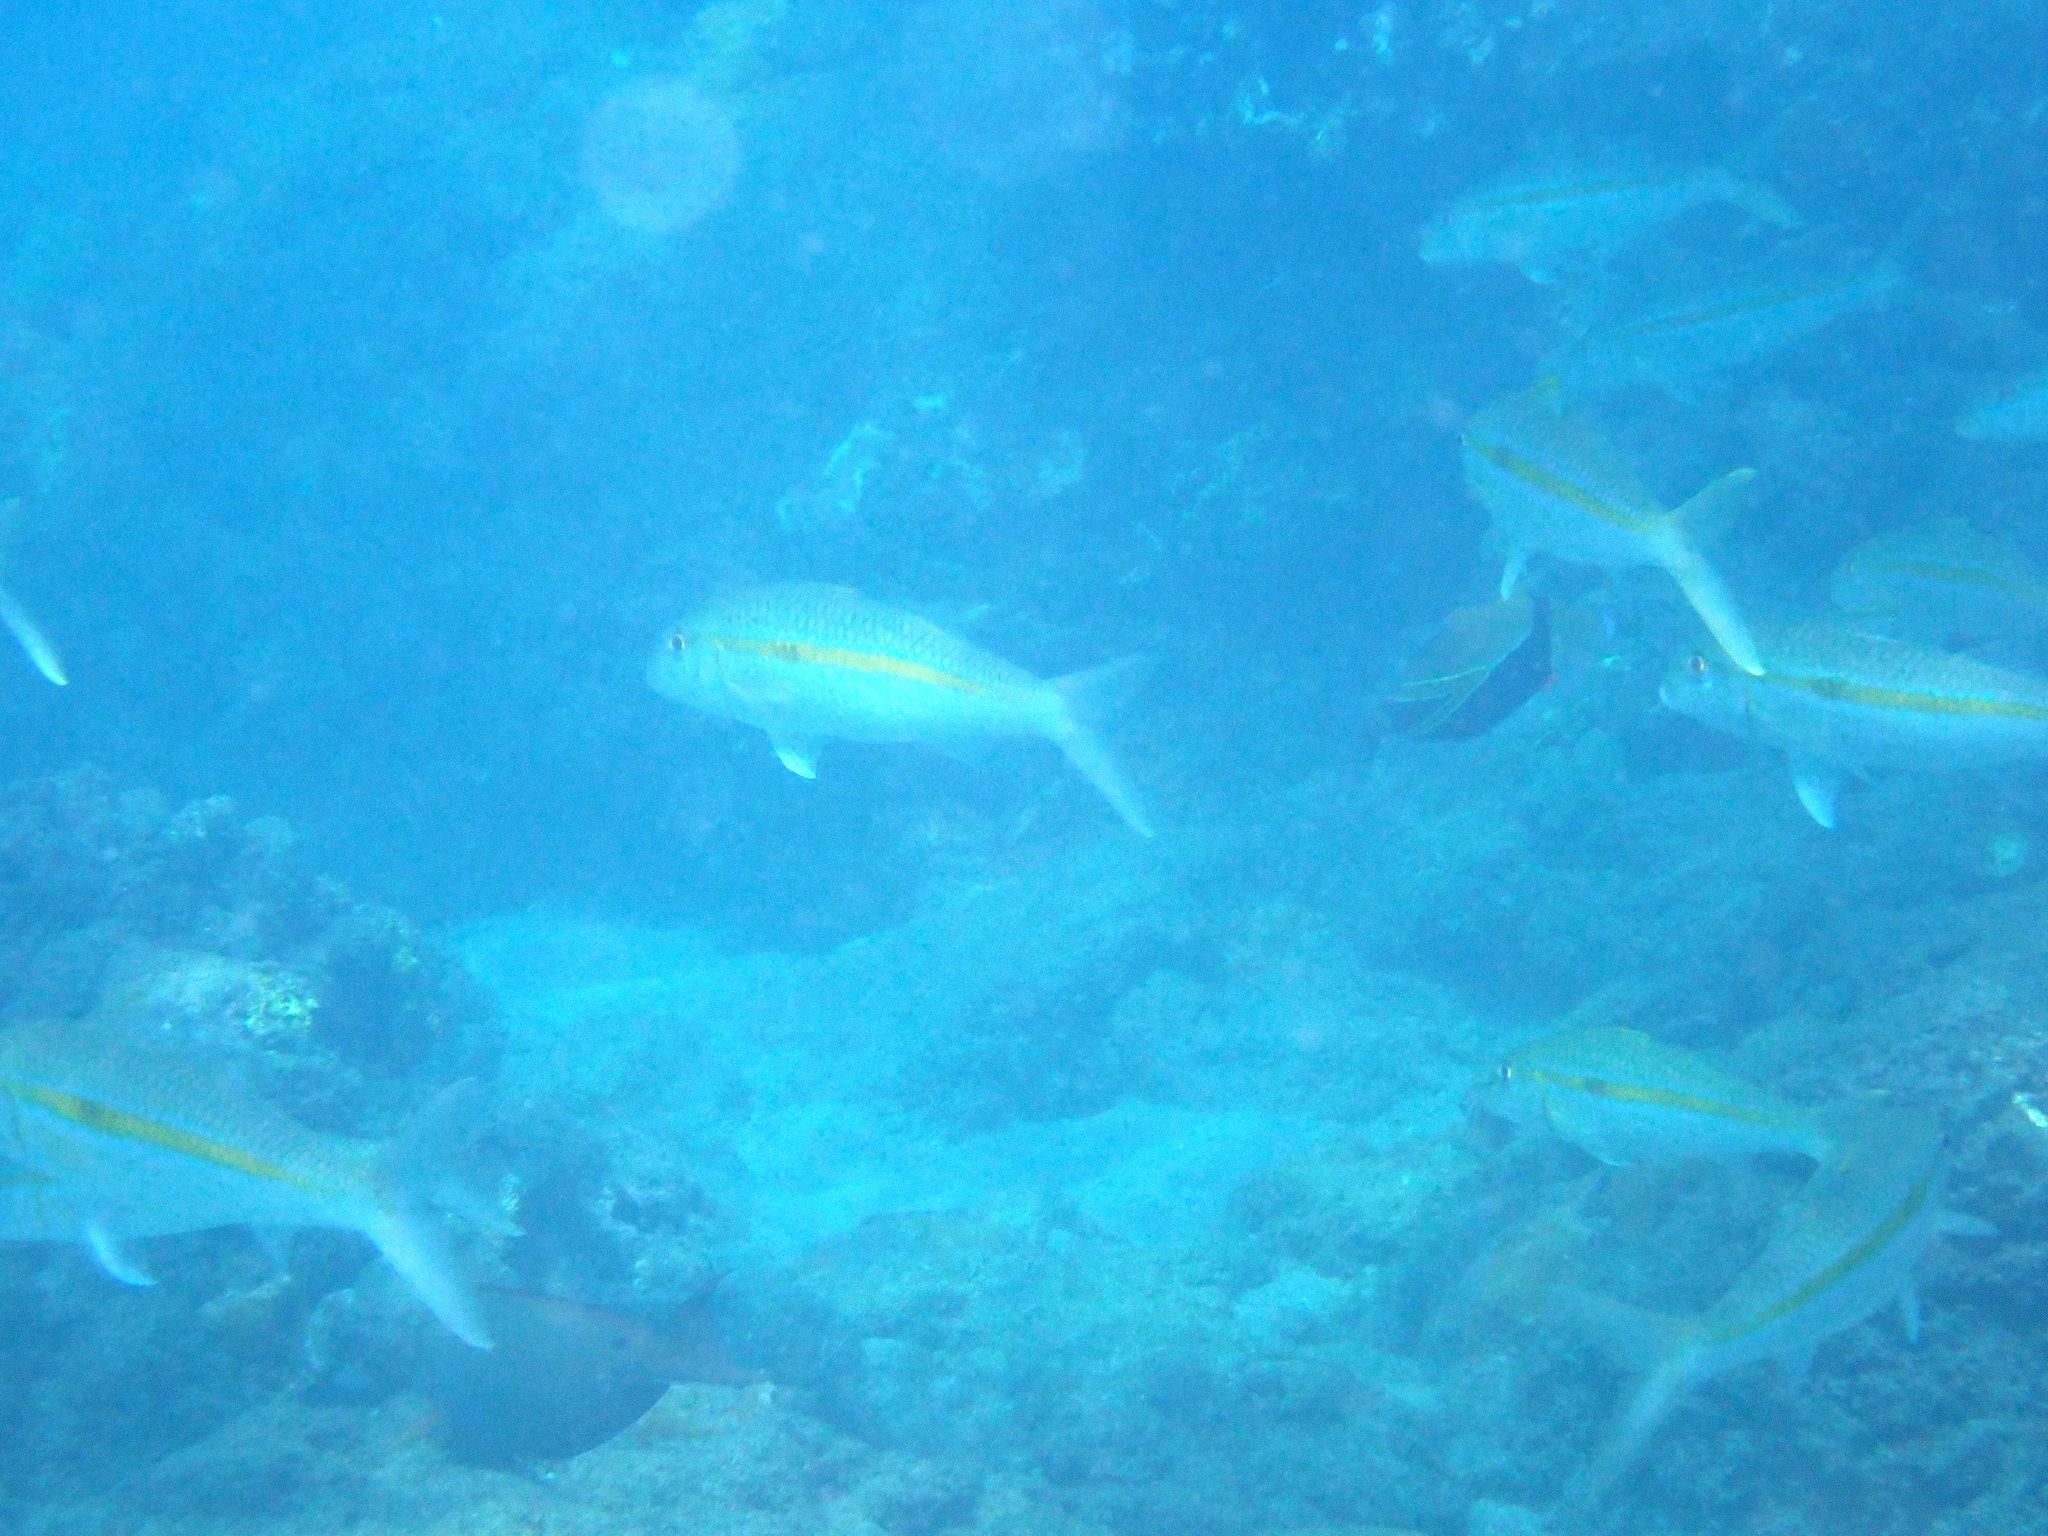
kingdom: Animalia
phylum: Chordata
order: Perciformes
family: Mullidae
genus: Mulloidichthys
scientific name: Mulloidichthys flavolineatus
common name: Yellowstripe goatfish
